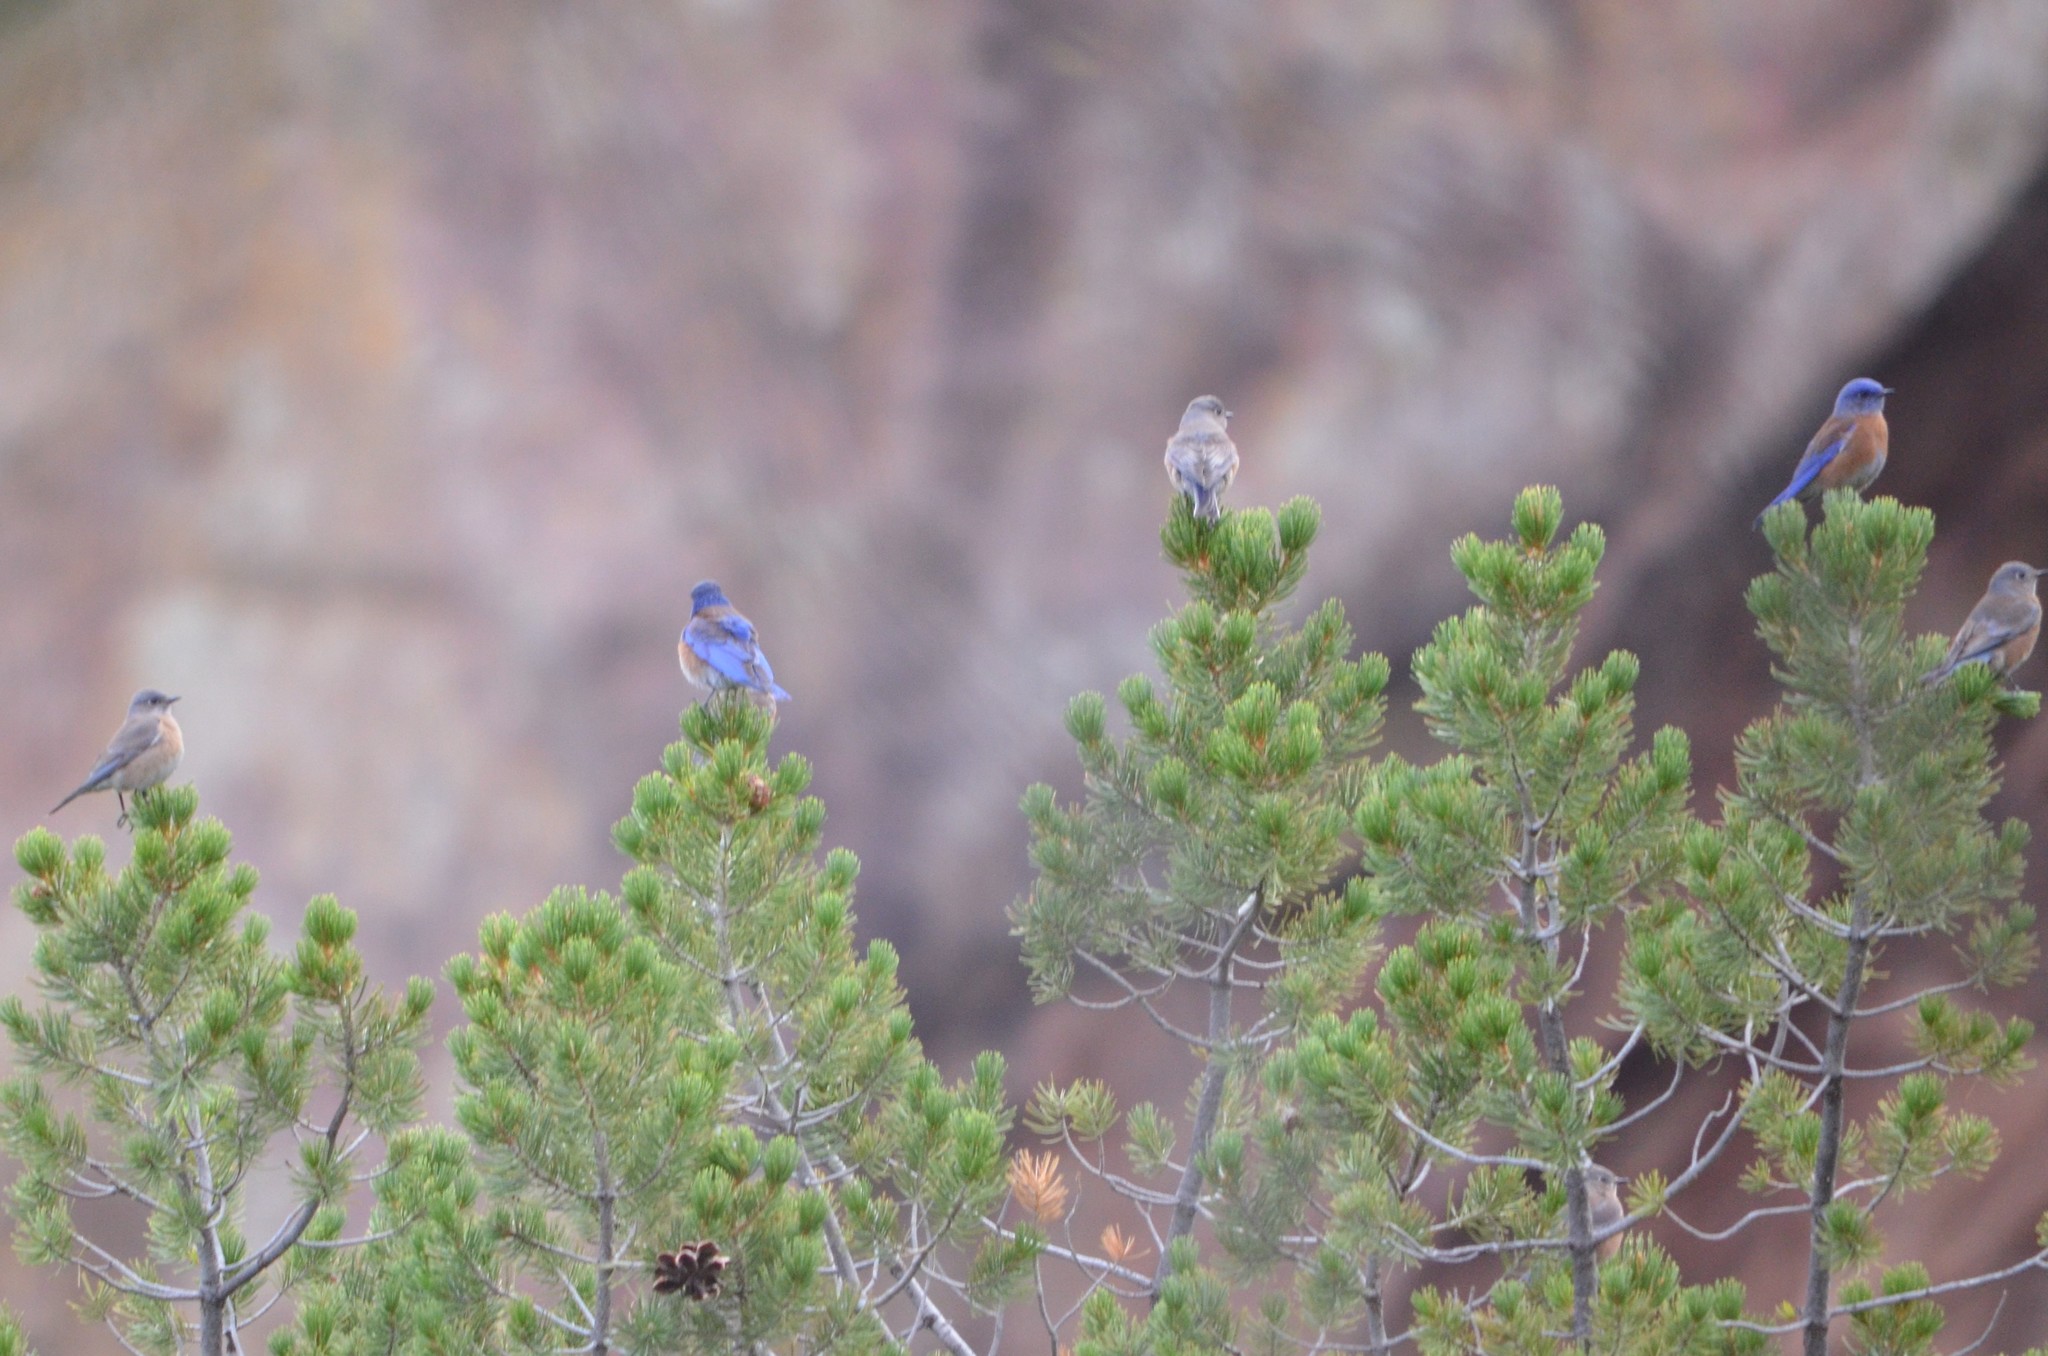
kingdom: Animalia
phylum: Chordata
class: Aves
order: Passeriformes
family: Turdidae
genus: Sialia
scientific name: Sialia mexicana
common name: Western bluebird
